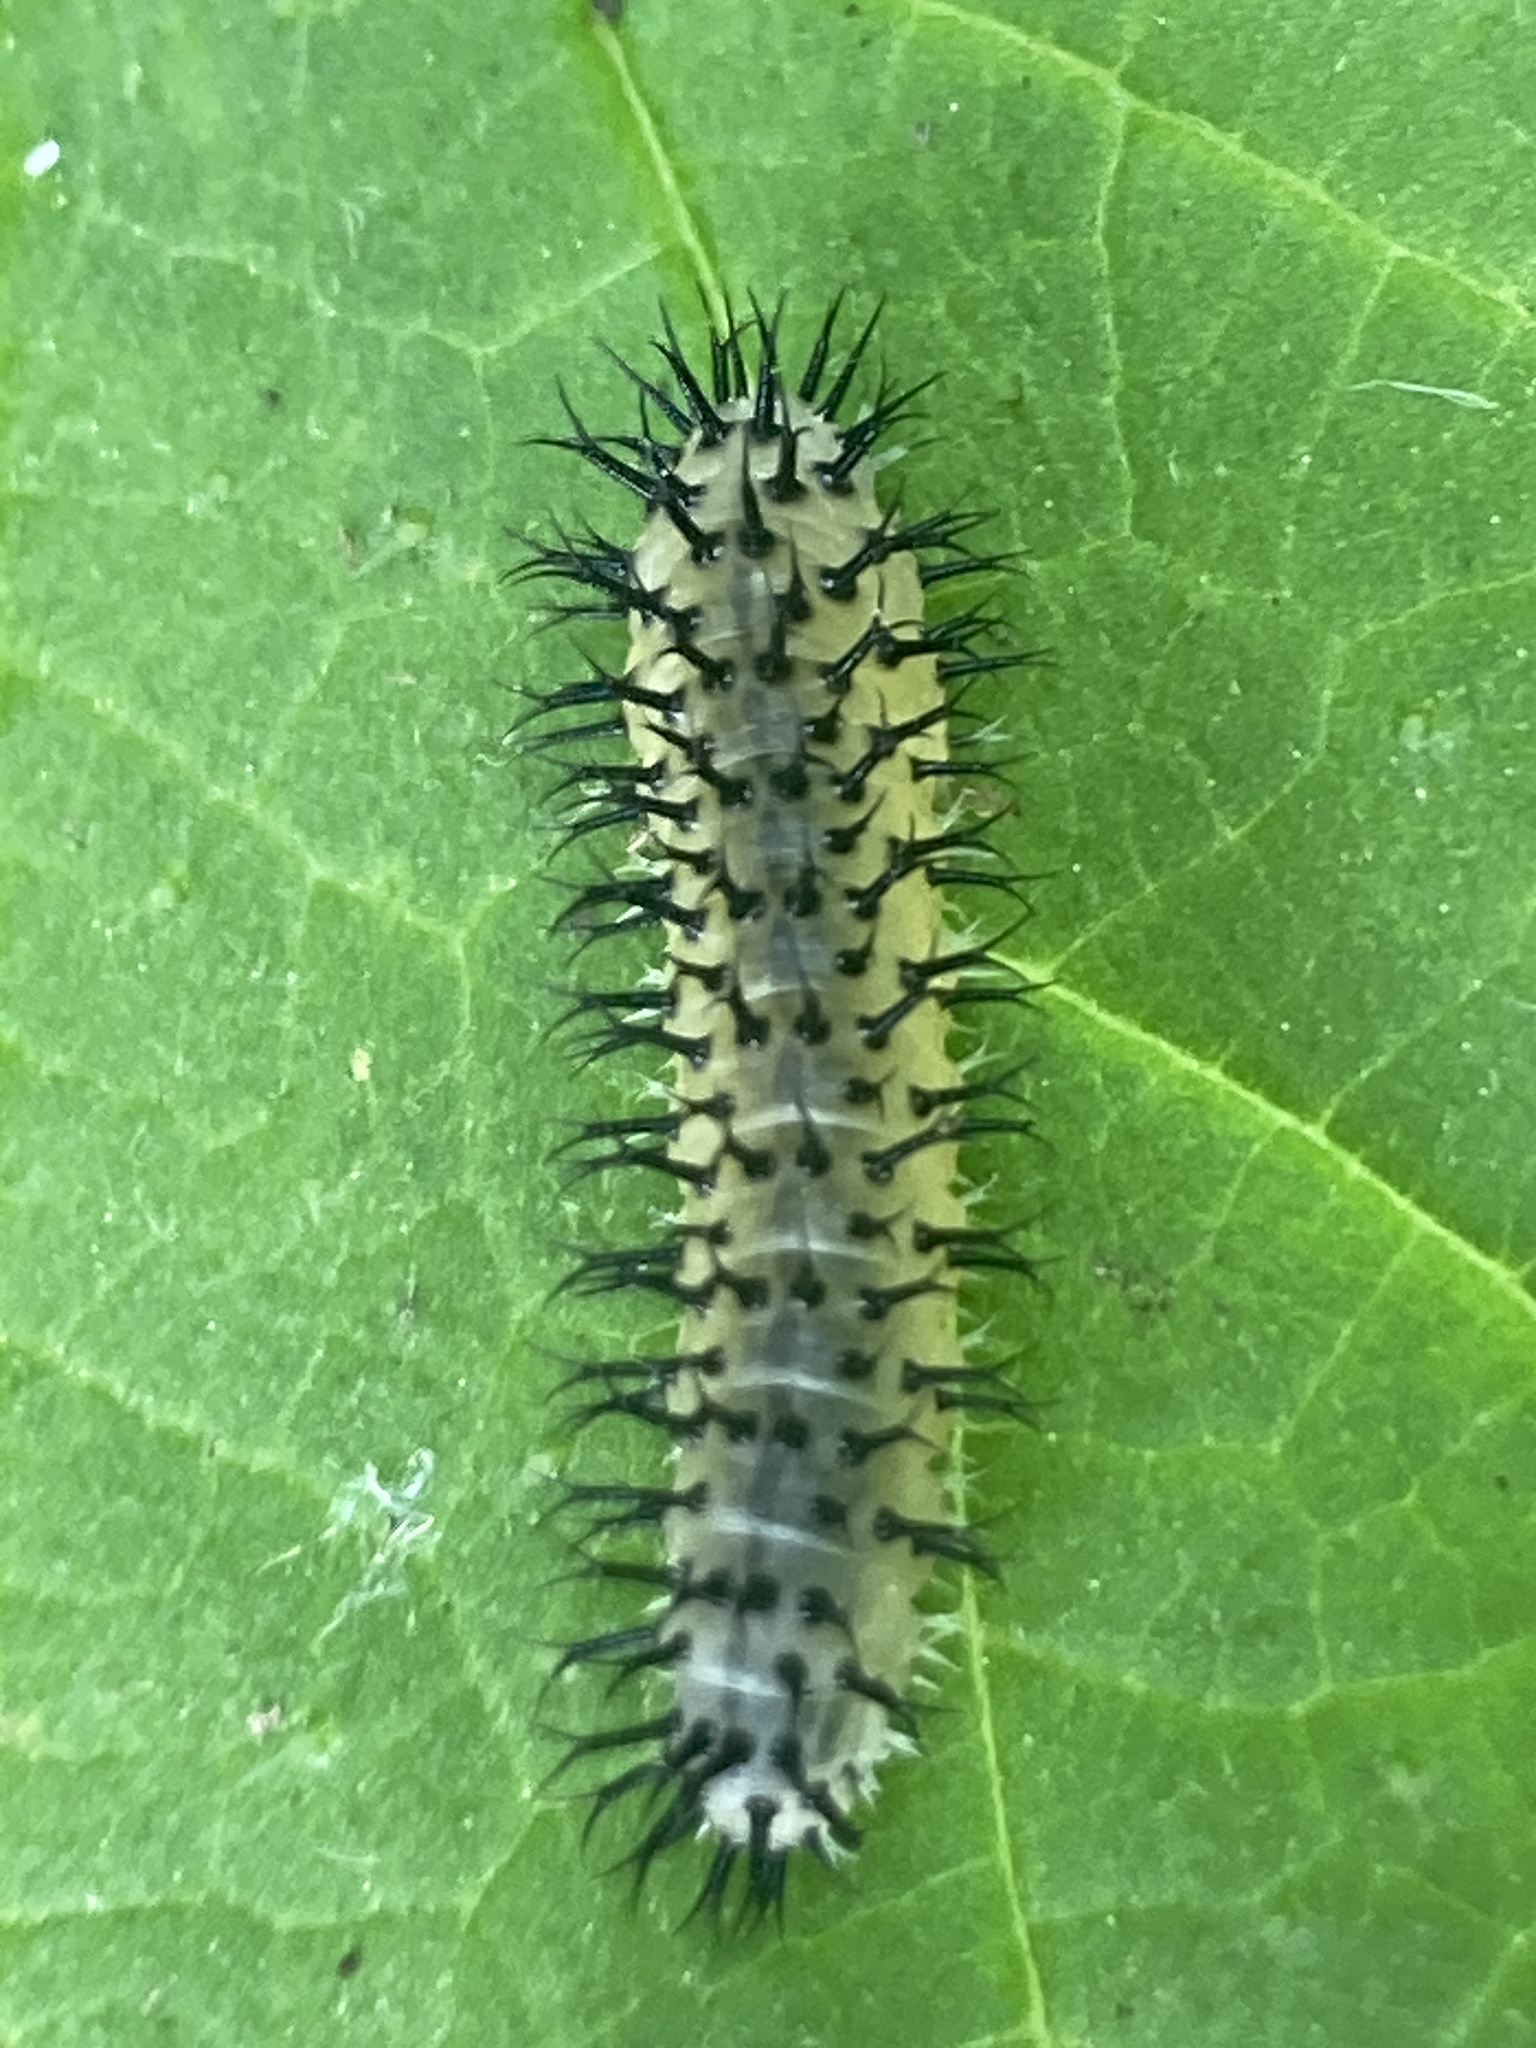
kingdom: Animalia
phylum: Arthropoda
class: Insecta
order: Hymenoptera
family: Tenthredinidae
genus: Periclista
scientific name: Periclista pubescens
